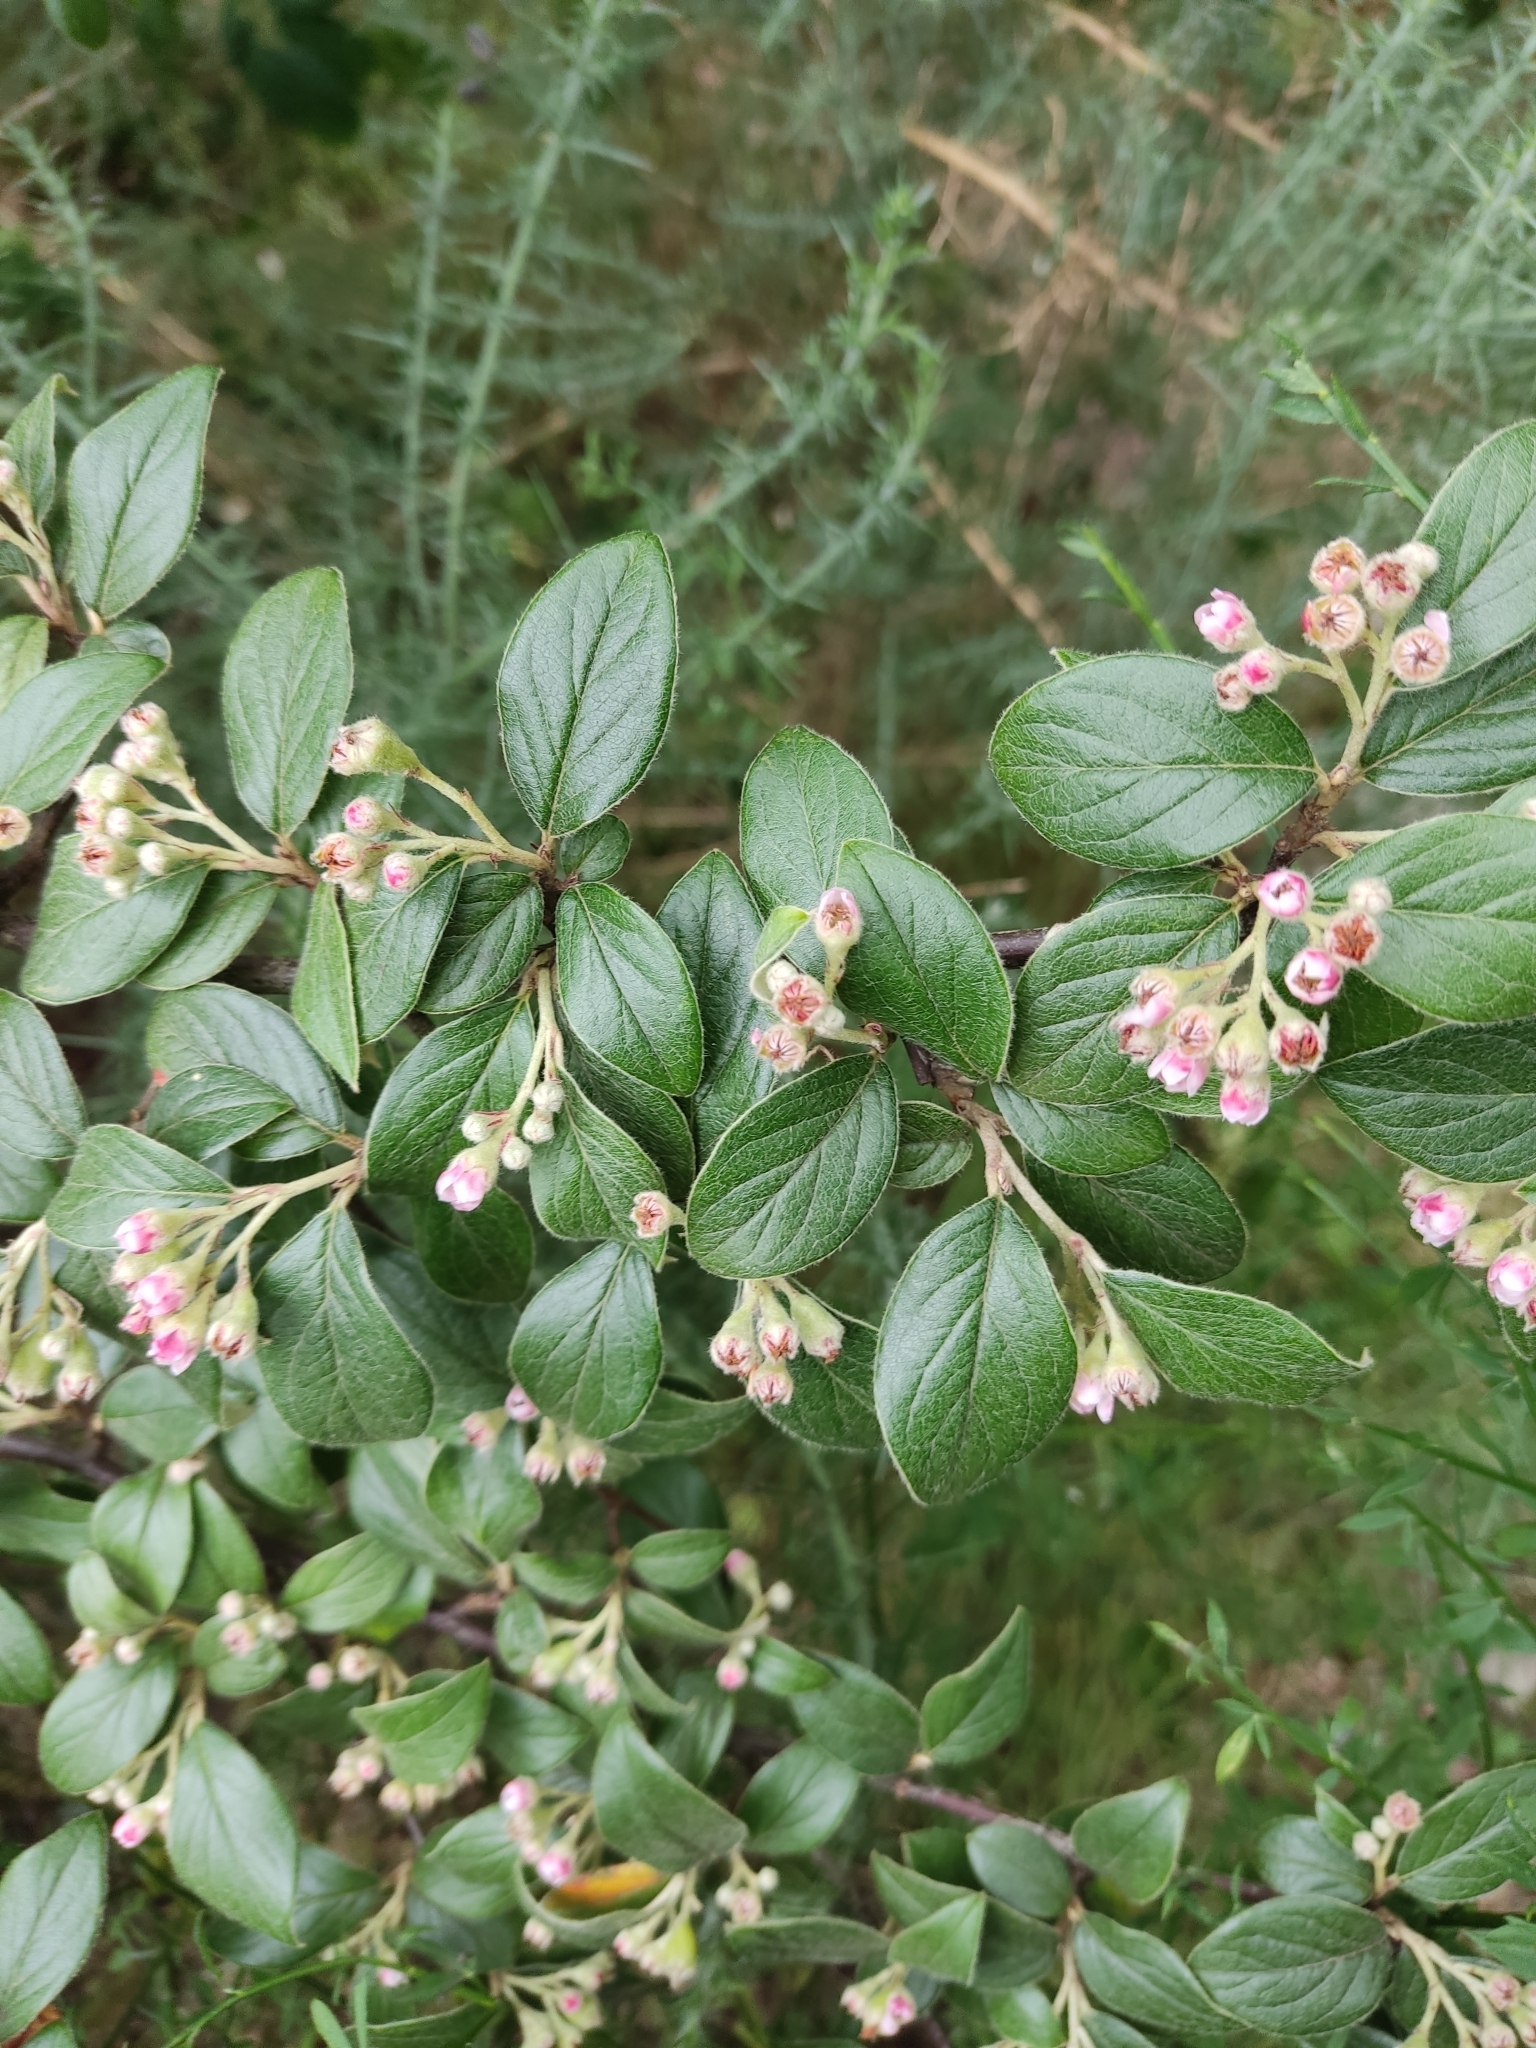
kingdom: Plantae
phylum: Tracheophyta
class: Magnoliopsida
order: Rosales
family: Rosaceae
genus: Cotoneaster
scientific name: Cotoneaster franchetii
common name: Franchet's cotoneaster
